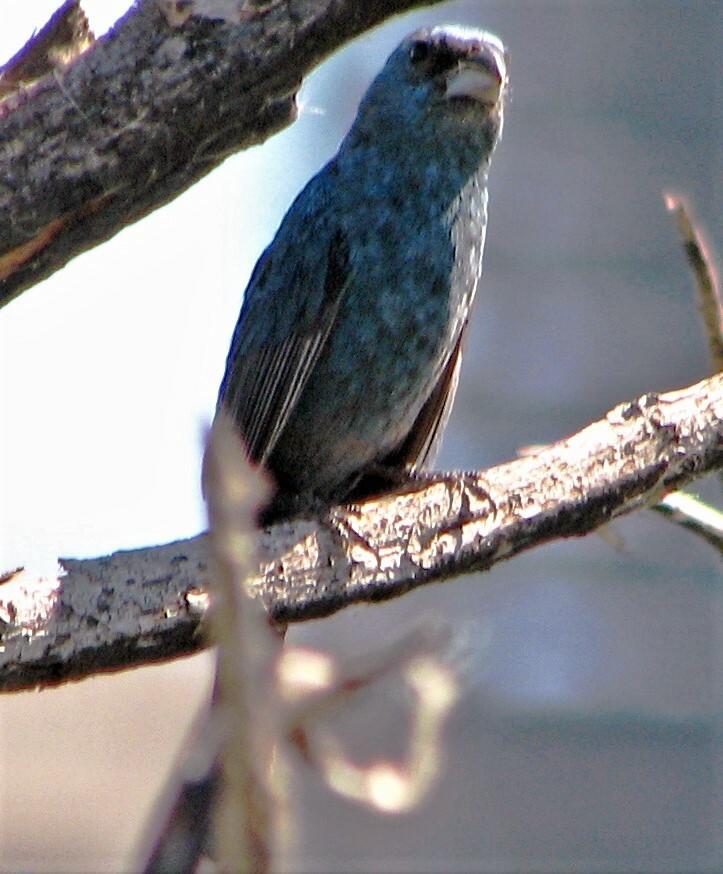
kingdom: Animalia
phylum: Chordata
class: Aves
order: Passeriformes
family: Cardinalidae
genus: Cyanoloxia
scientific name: Cyanoloxia glaucocaerulea
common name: Glaucous-blue grosbeak
